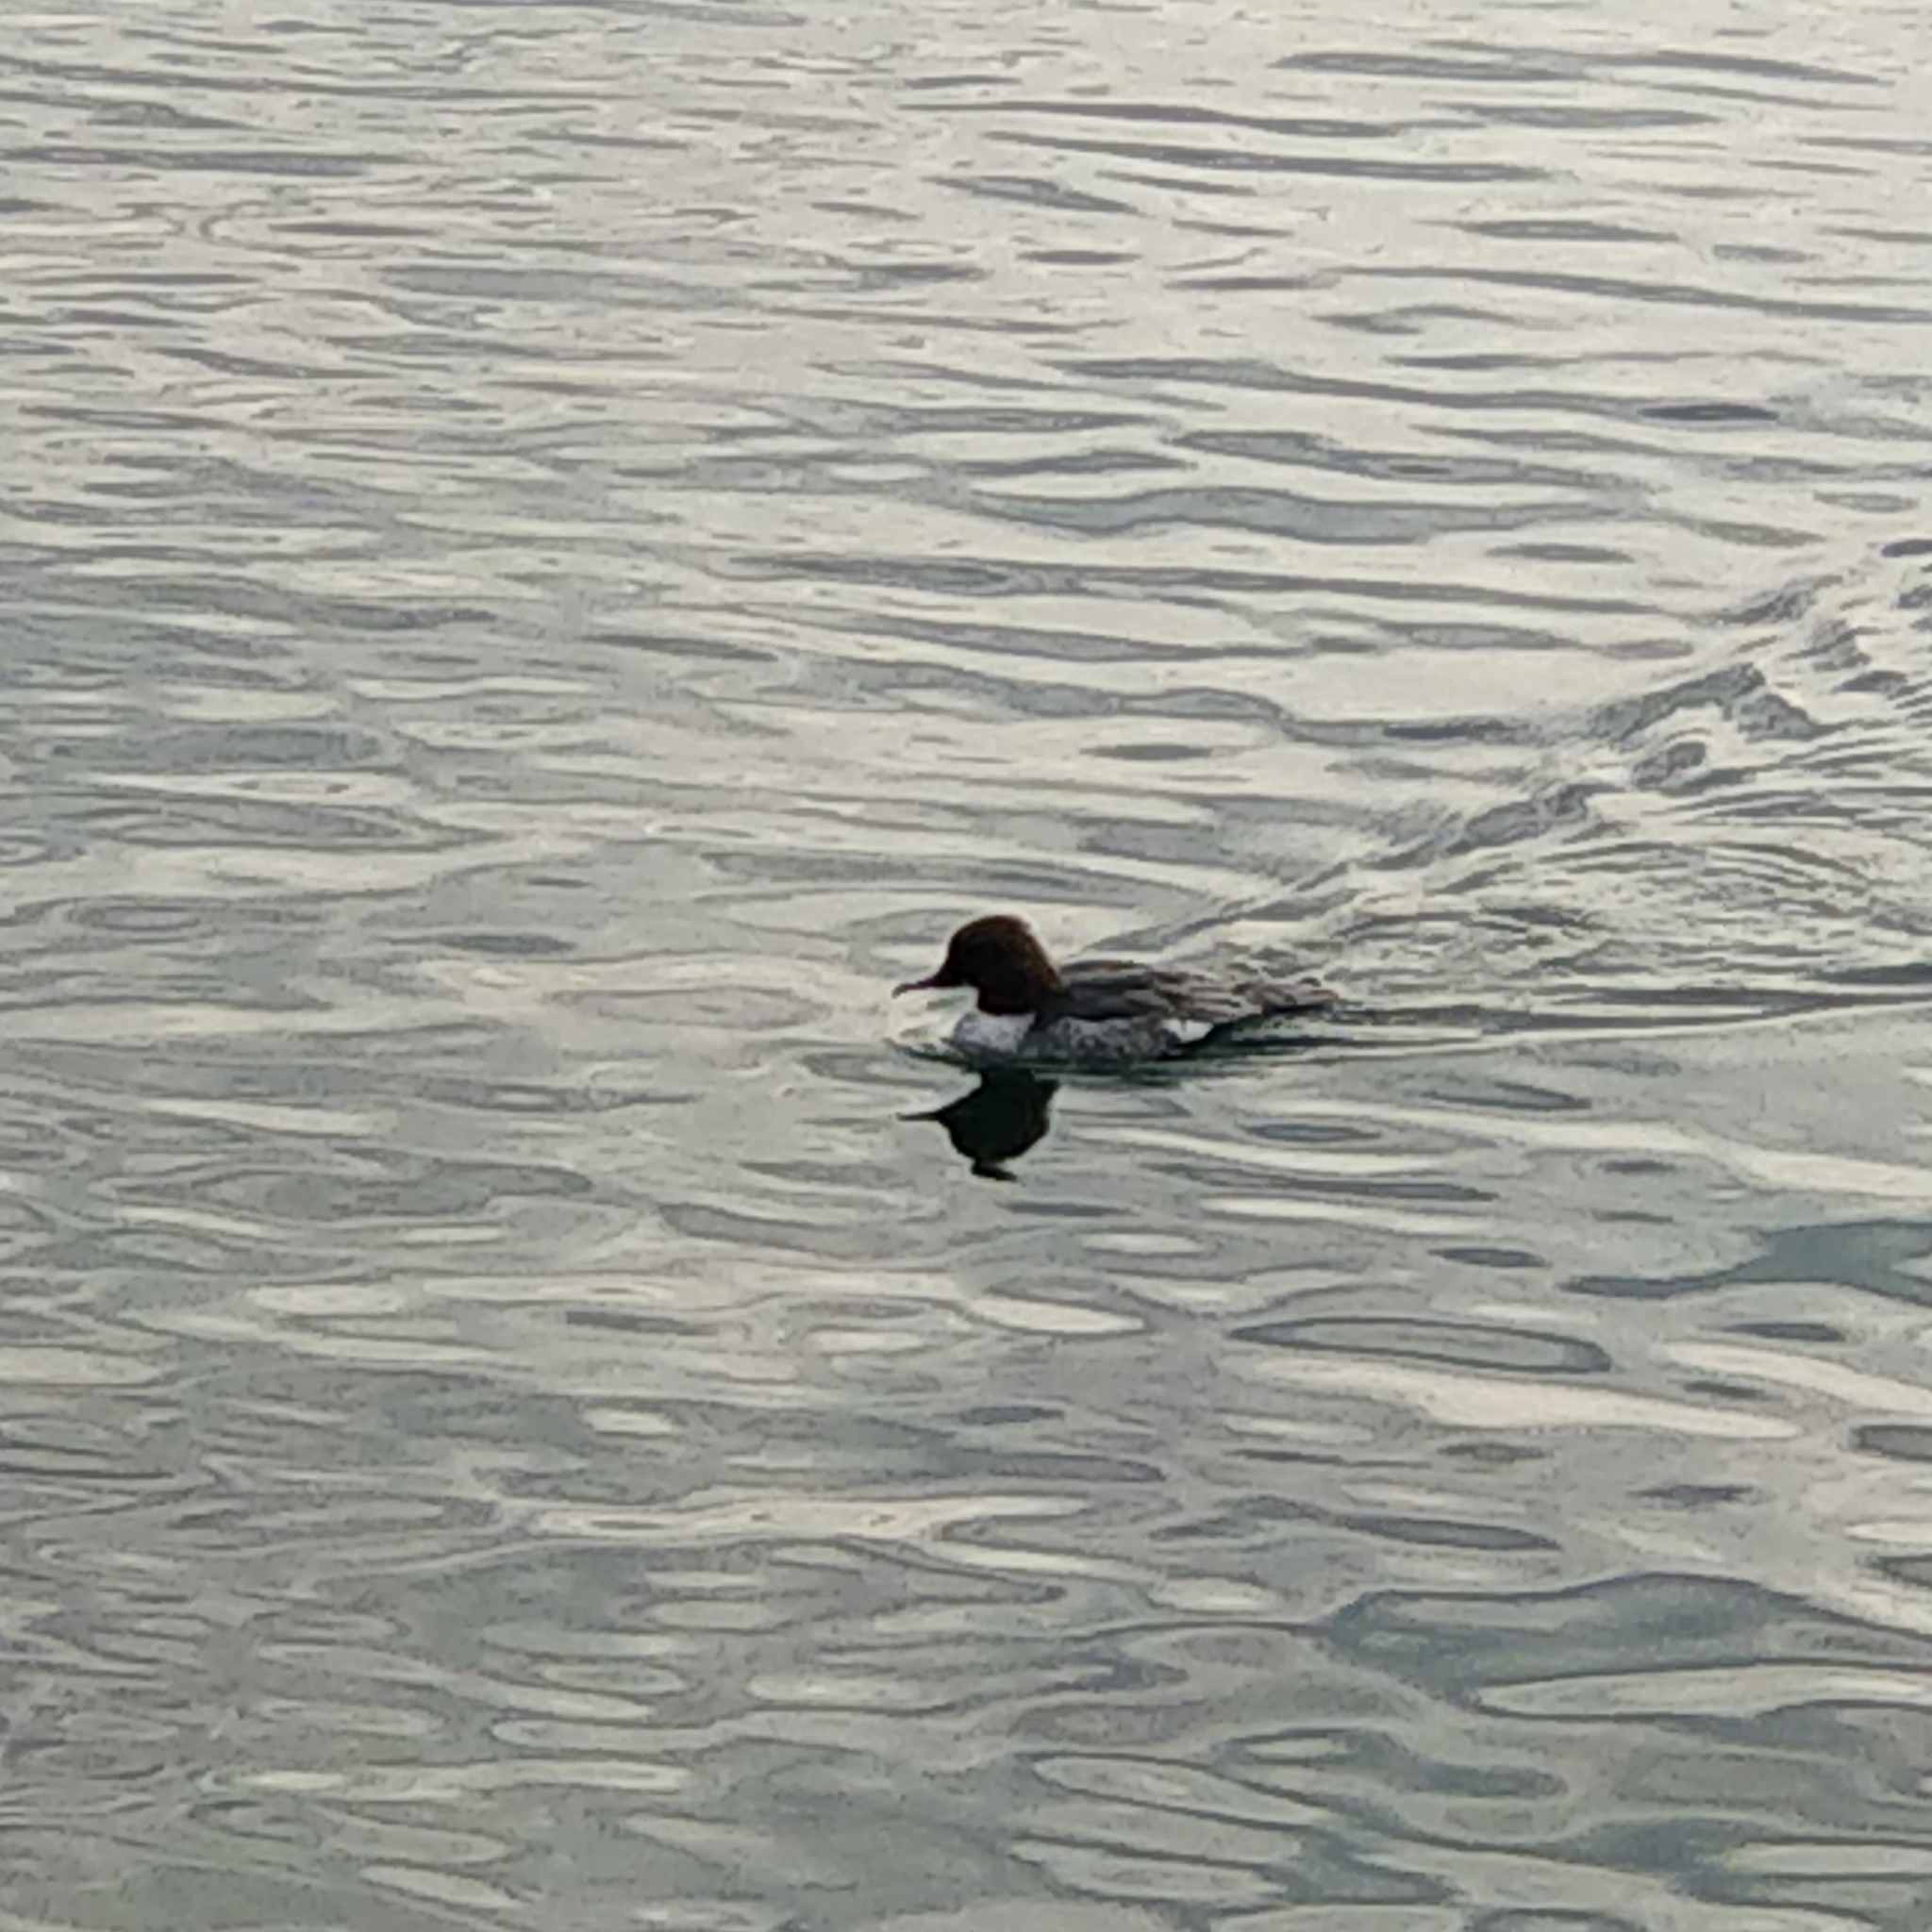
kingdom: Animalia
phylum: Chordata
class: Aves
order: Anseriformes
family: Anatidae
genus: Mergus
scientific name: Mergus merganser
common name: Common merganser
